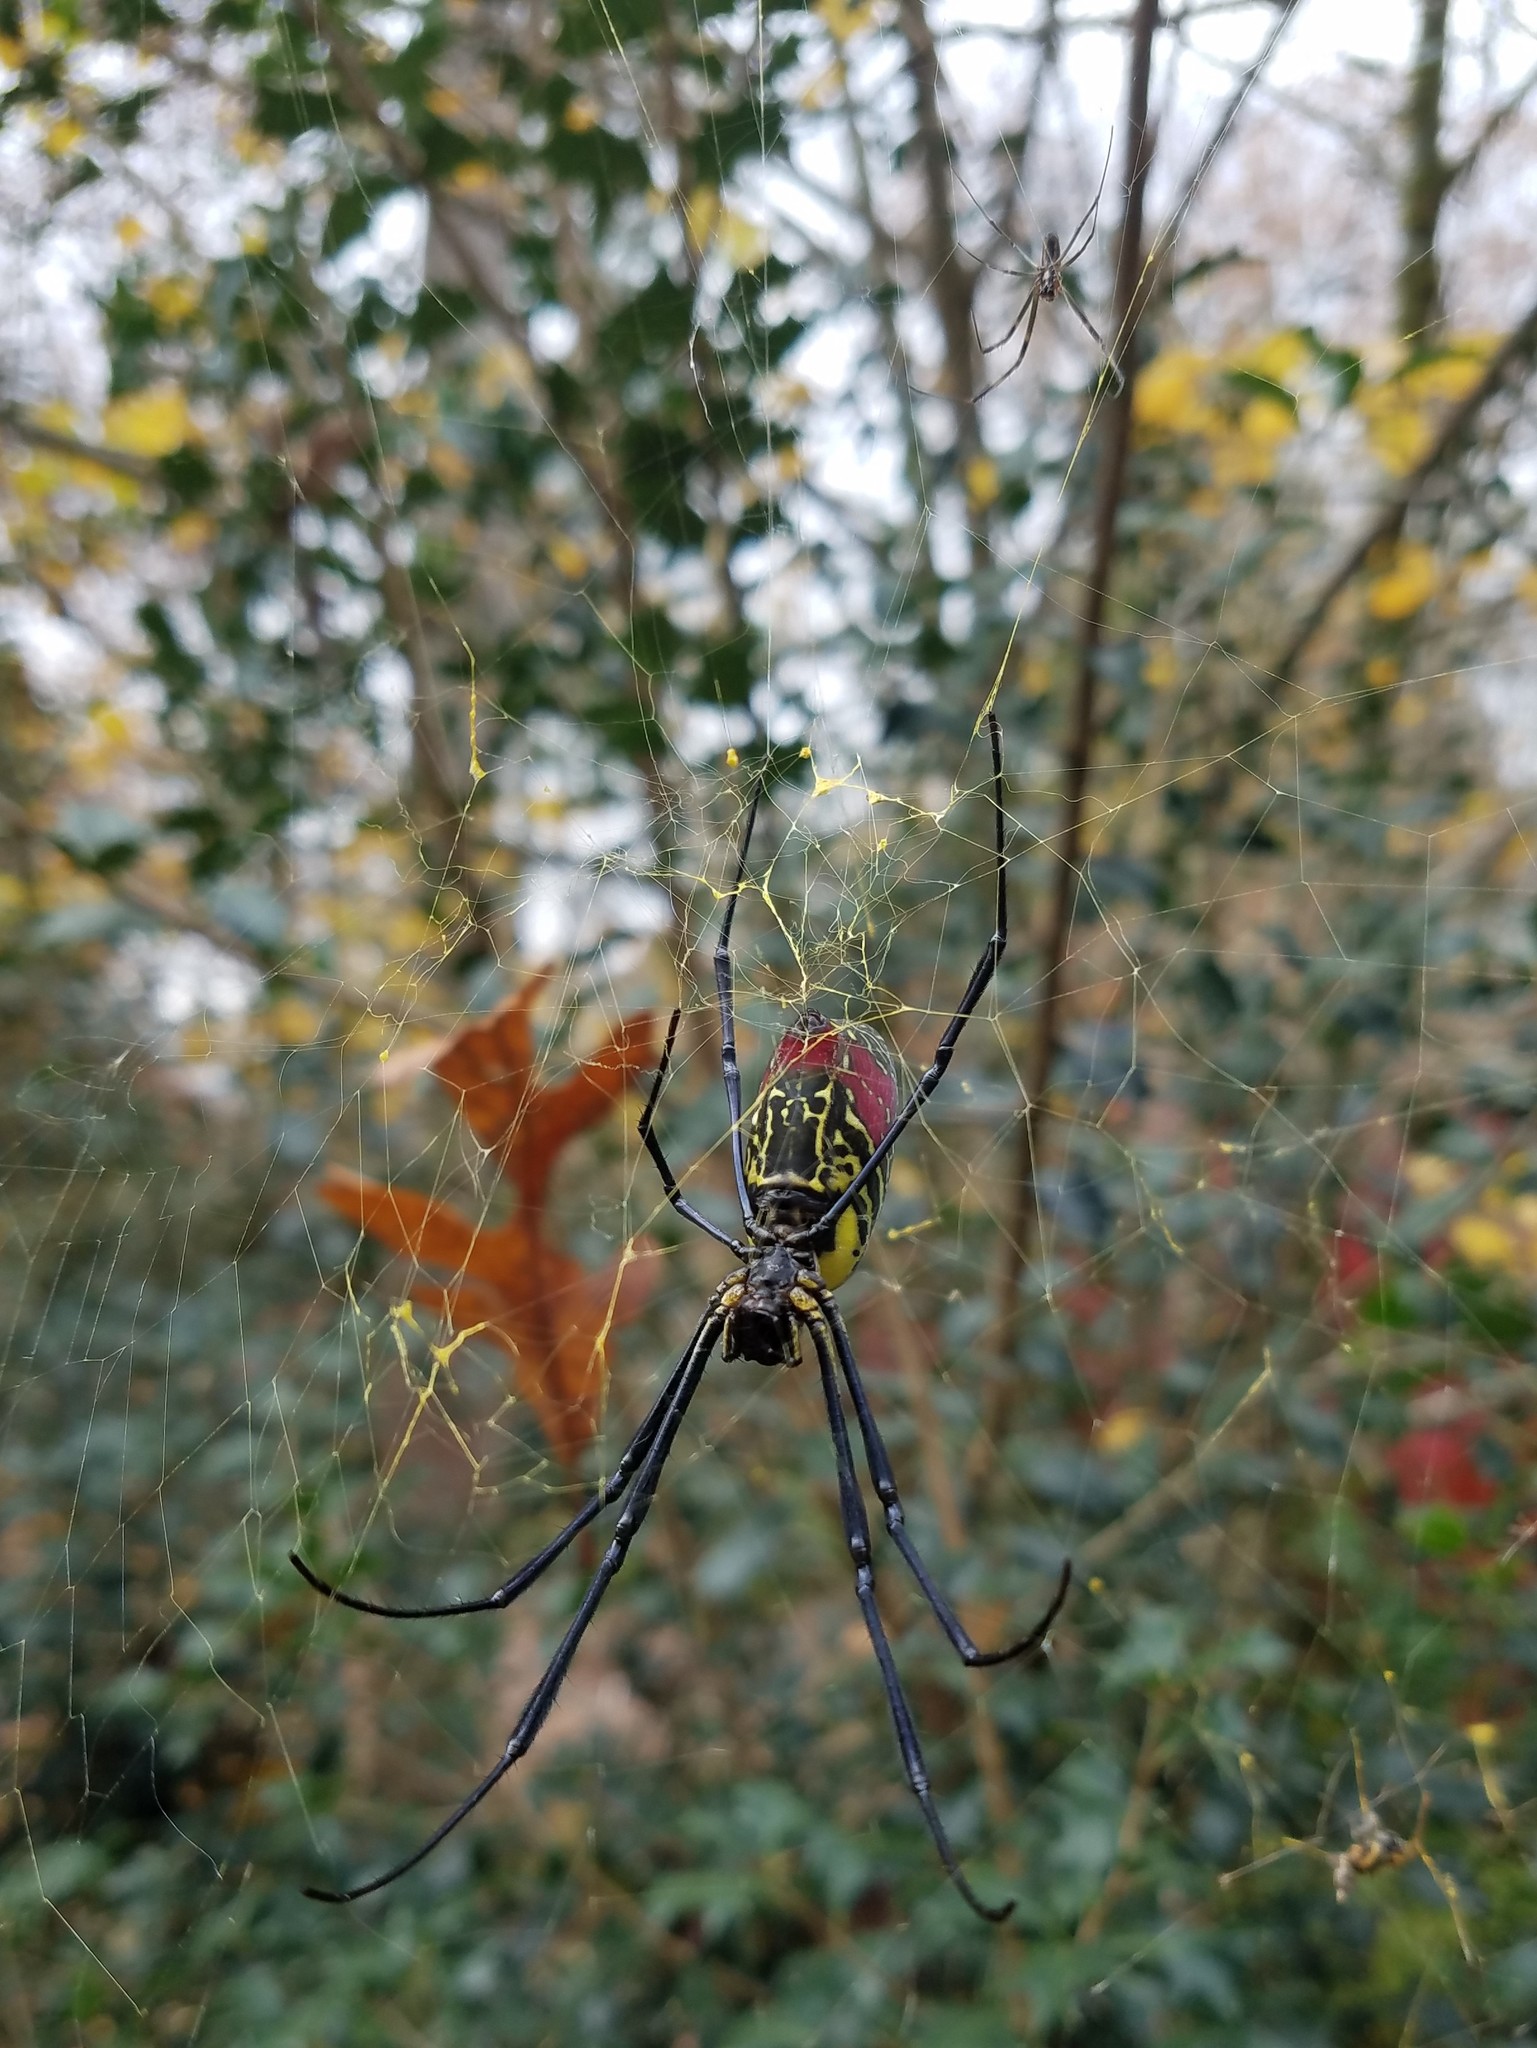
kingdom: Animalia
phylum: Arthropoda
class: Arachnida
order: Araneae
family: Araneidae
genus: Trichonephila
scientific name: Trichonephila clavata
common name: Jorō spider
